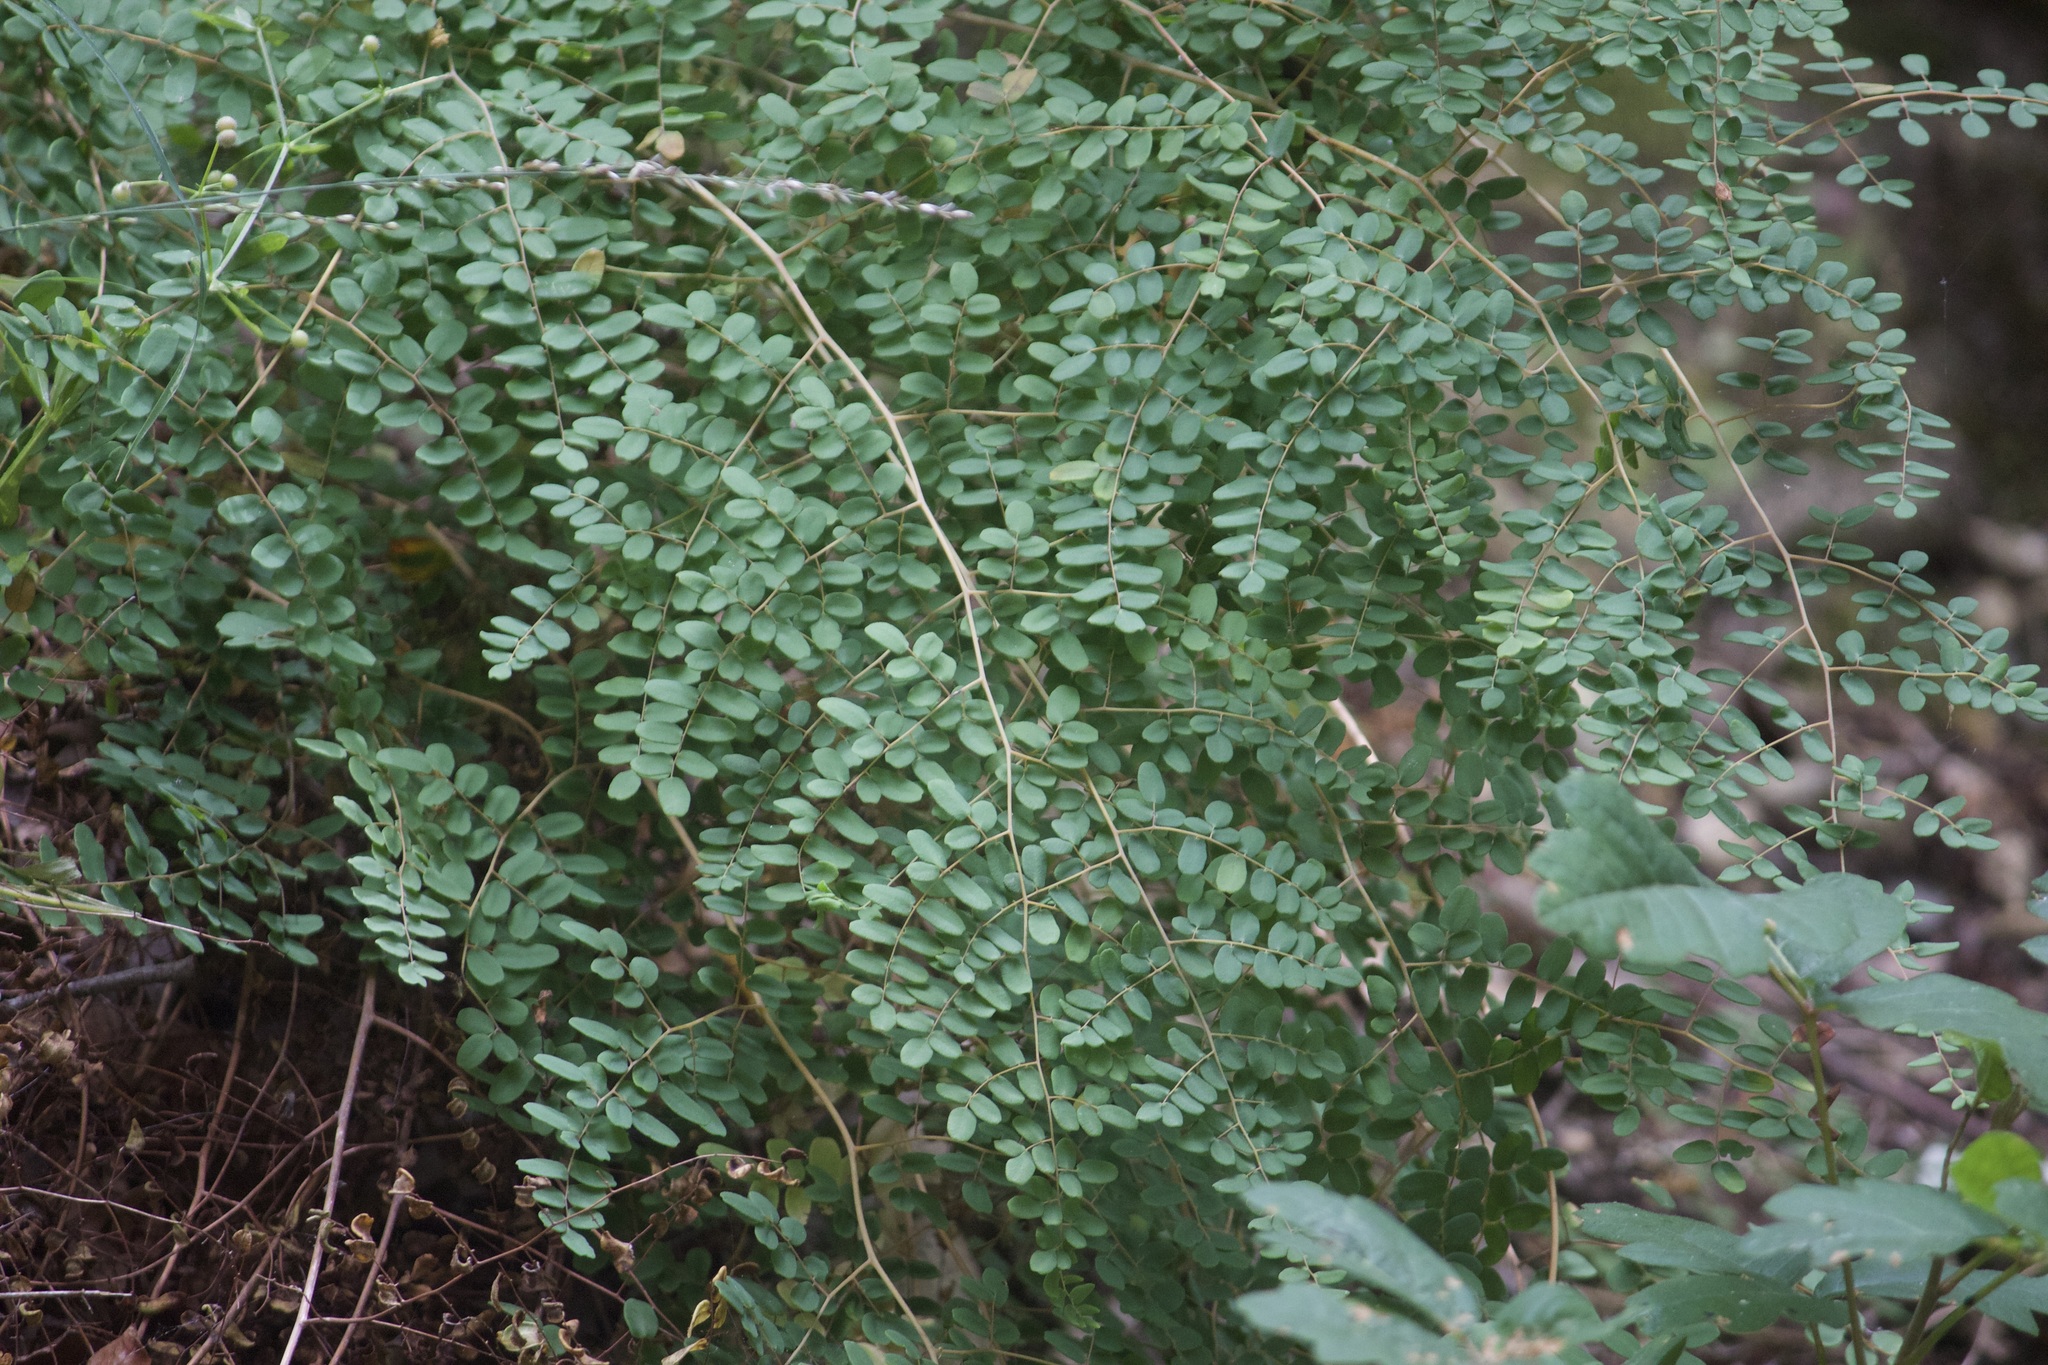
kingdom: Plantae
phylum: Tracheophyta
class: Polypodiopsida
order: Polypodiales
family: Pteridaceae
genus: Pellaea
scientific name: Pellaea andromedifolia
